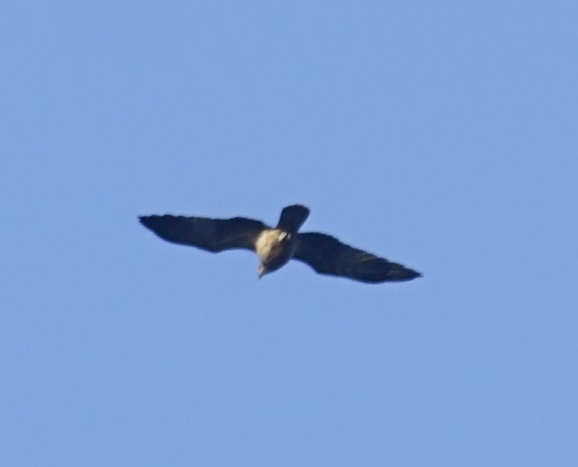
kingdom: Animalia
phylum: Chordata
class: Aves
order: Accipitriformes
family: Accipitridae
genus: Haliastur
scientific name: Haliastur sphenurus
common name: Whistling kite
